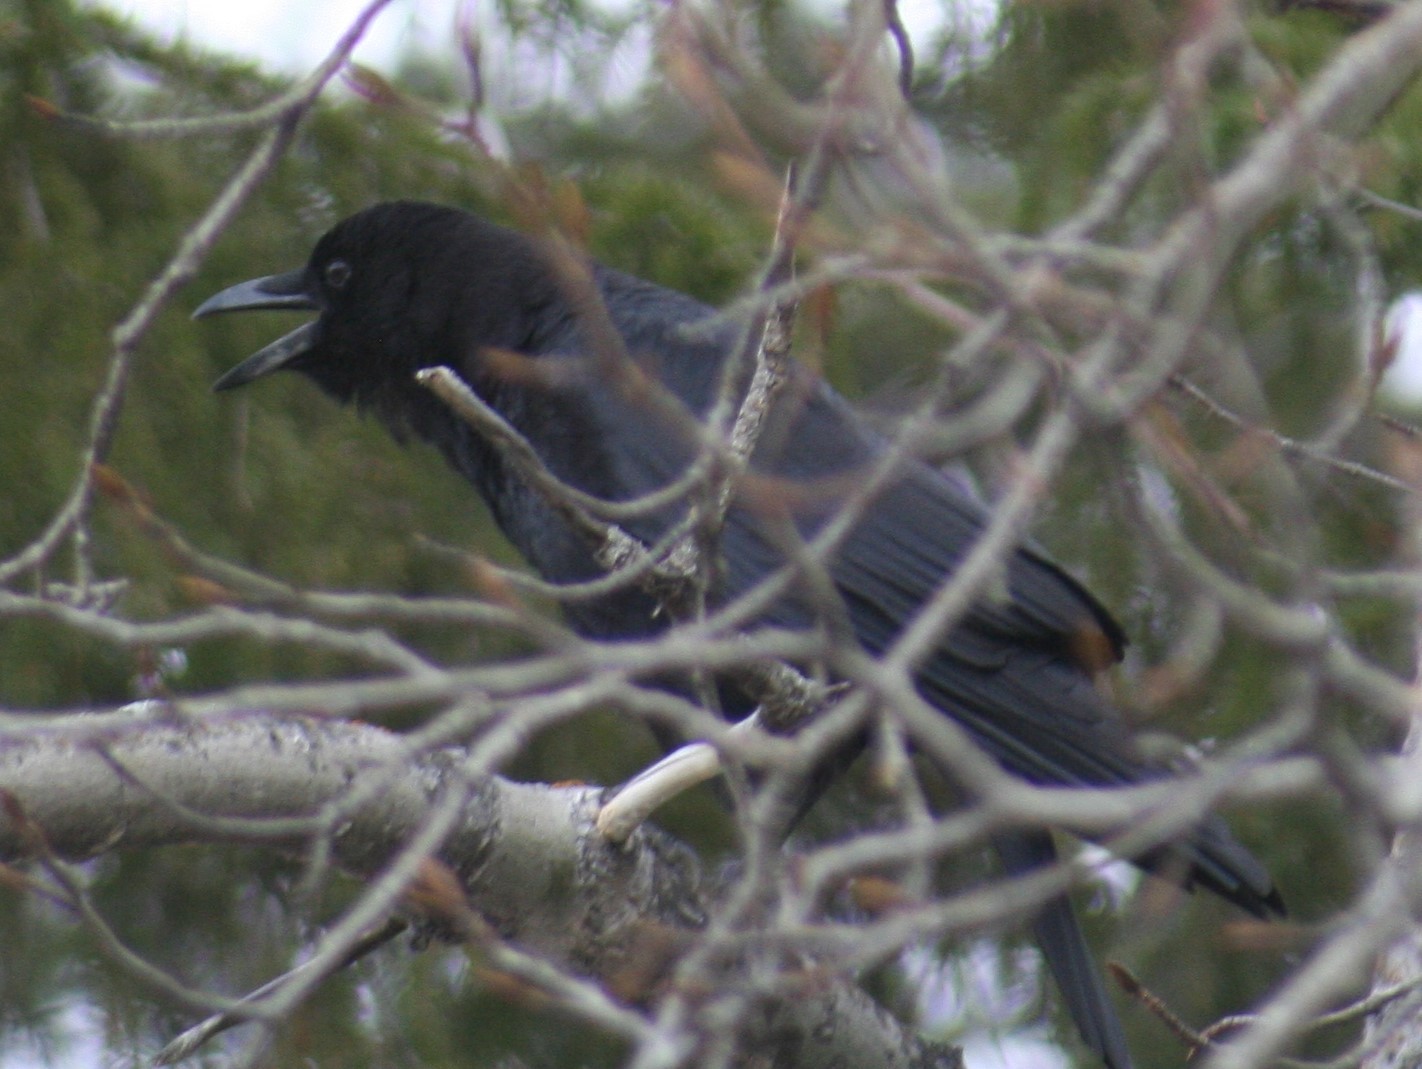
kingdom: Animalia
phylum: Chordata
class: Aves
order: Passeriformes
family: Corvidae
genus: Corvus
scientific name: Corvus brachyrhynchos
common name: American crow
